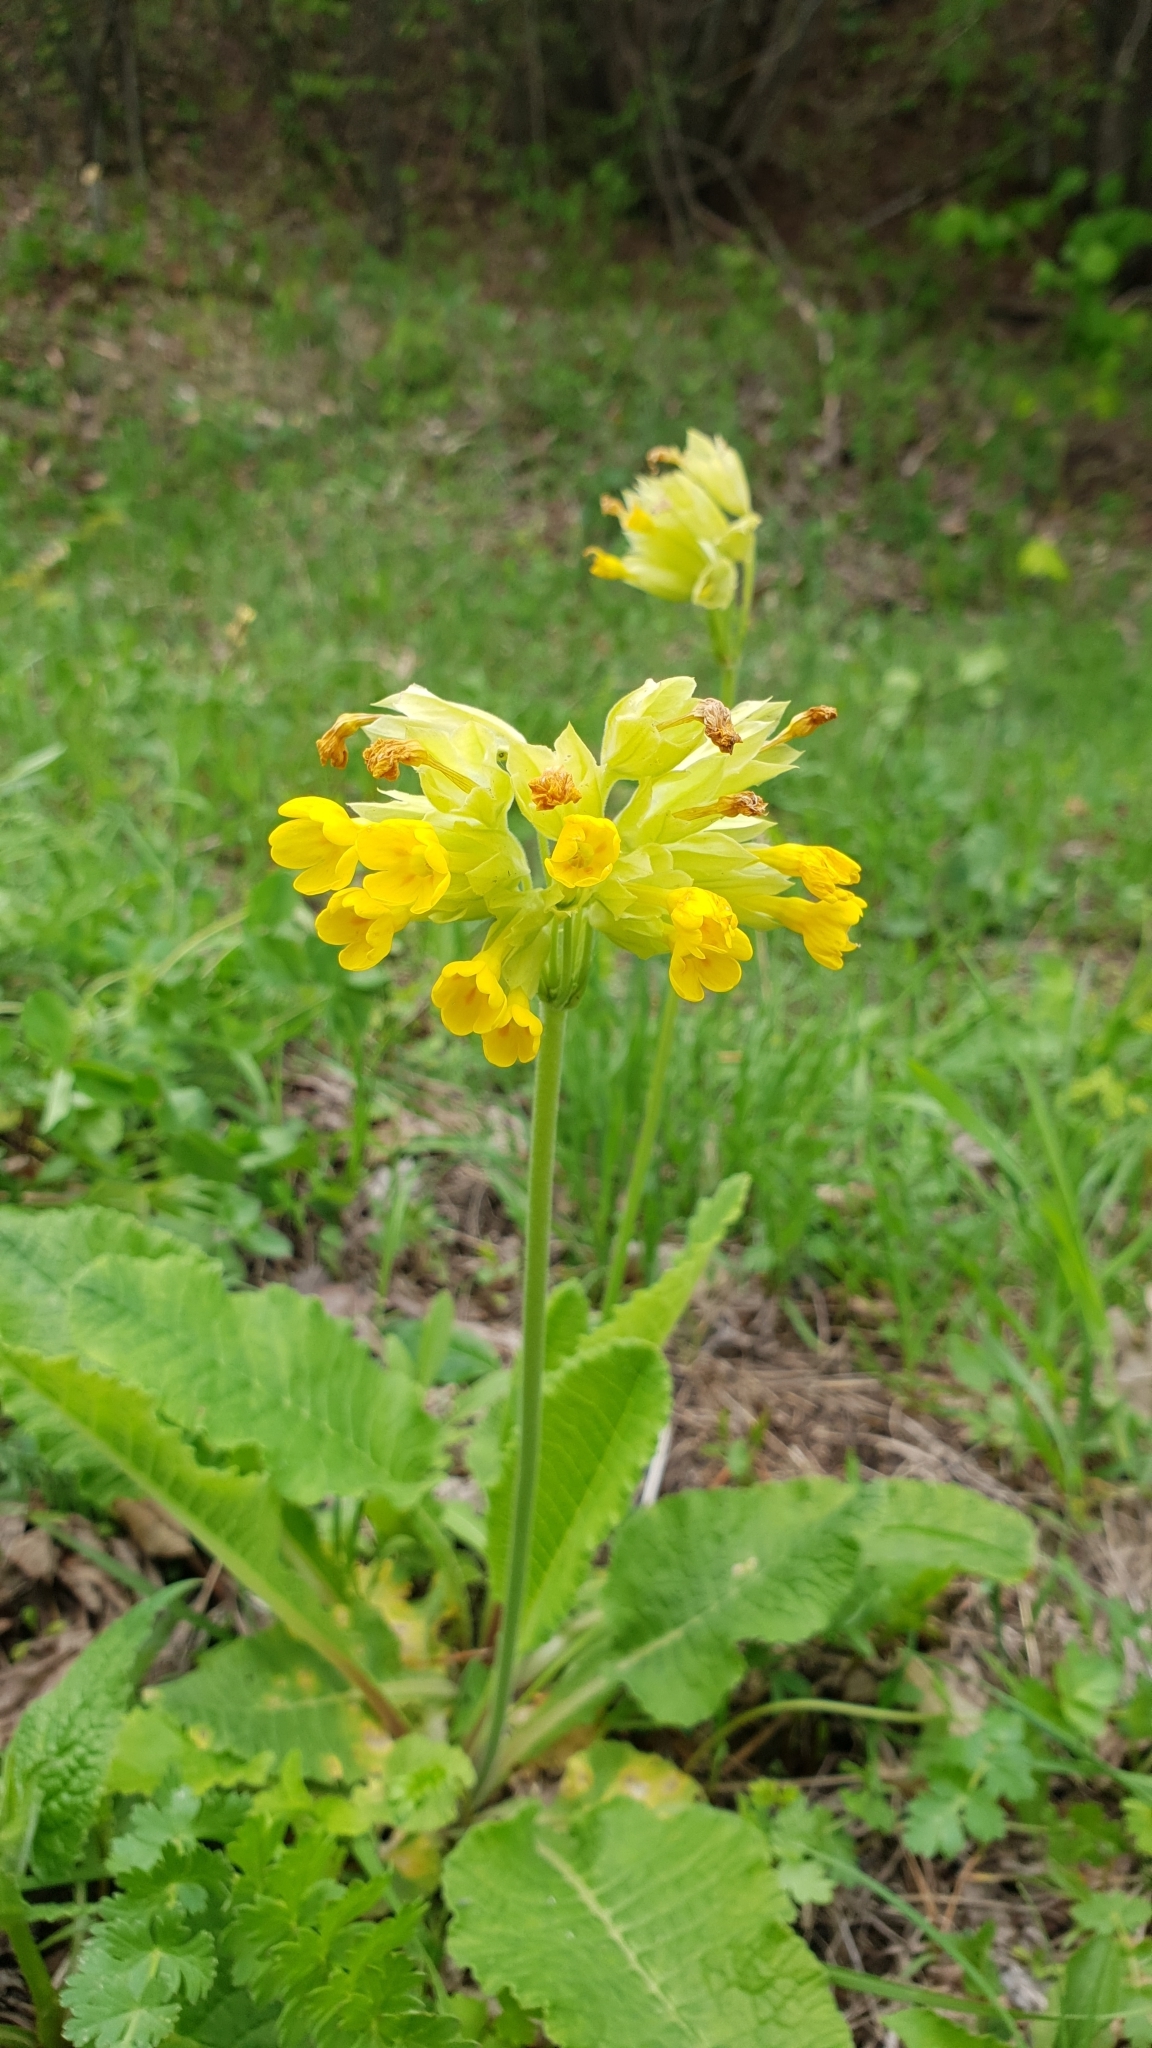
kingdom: Plantae
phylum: Tracheophyta
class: Magnoliopsida
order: Ericales
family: Primulaceae
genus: Primula
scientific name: Primula veris
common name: Cowslip
